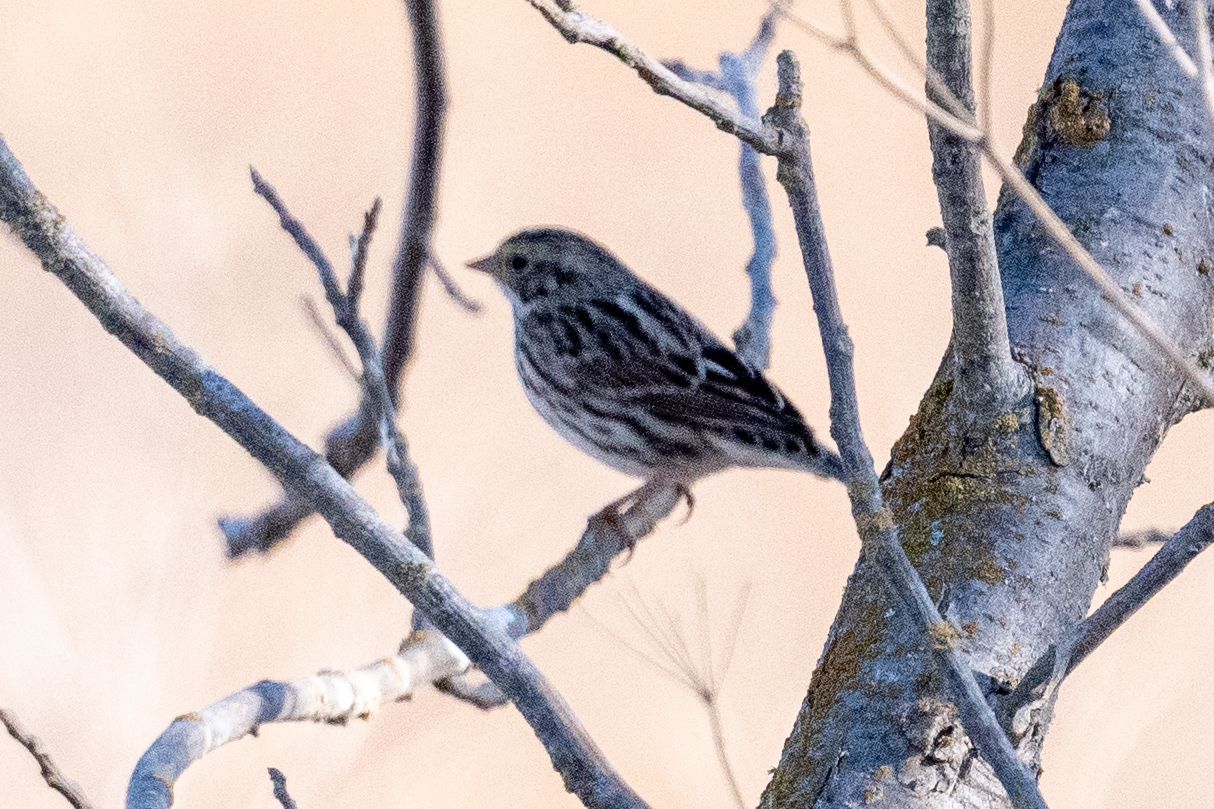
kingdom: Animalia
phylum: Chordata
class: Aves
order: Passeriformes
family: Passerellidae
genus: Passerculus
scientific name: Passerculus sandwichensis
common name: Savannah sparrow
